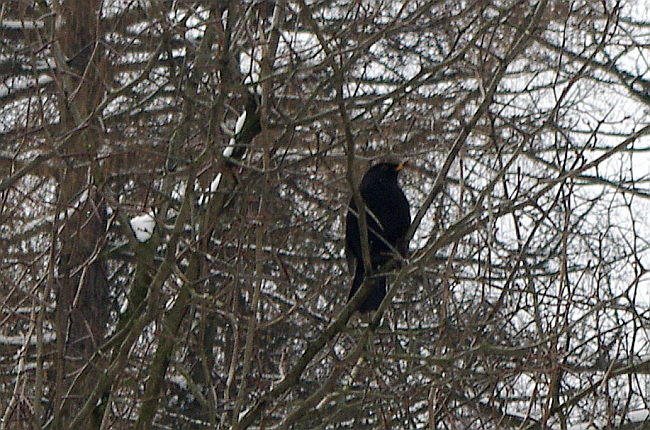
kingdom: Animalia
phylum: Chordata
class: Aves
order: Passeriformes
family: Turdidae
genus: Turdus
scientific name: Turdus merula
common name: Common blackbird
